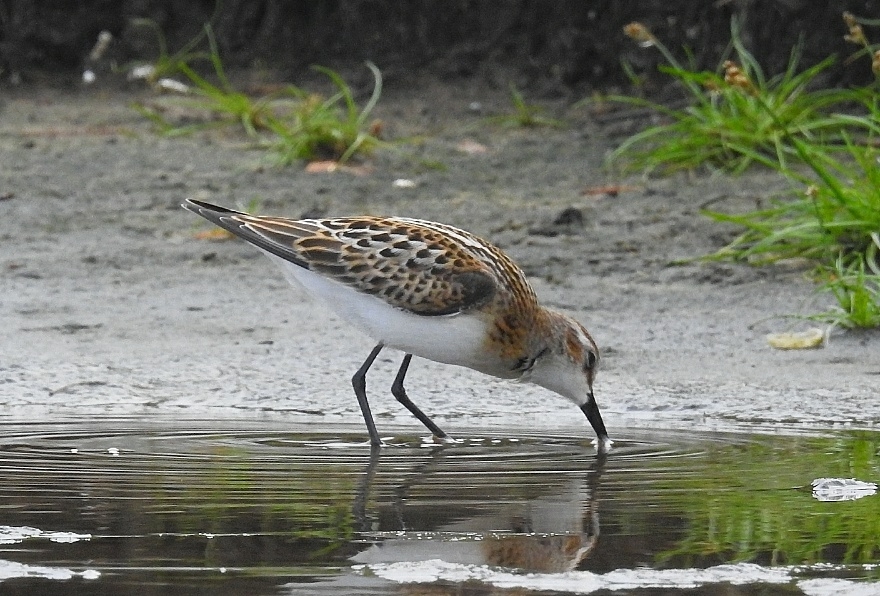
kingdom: Animalia
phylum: Chordata
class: Aves
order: Charadriiformes
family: Scolopacidae
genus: Calidris
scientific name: Calidris minuta
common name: Little stint
